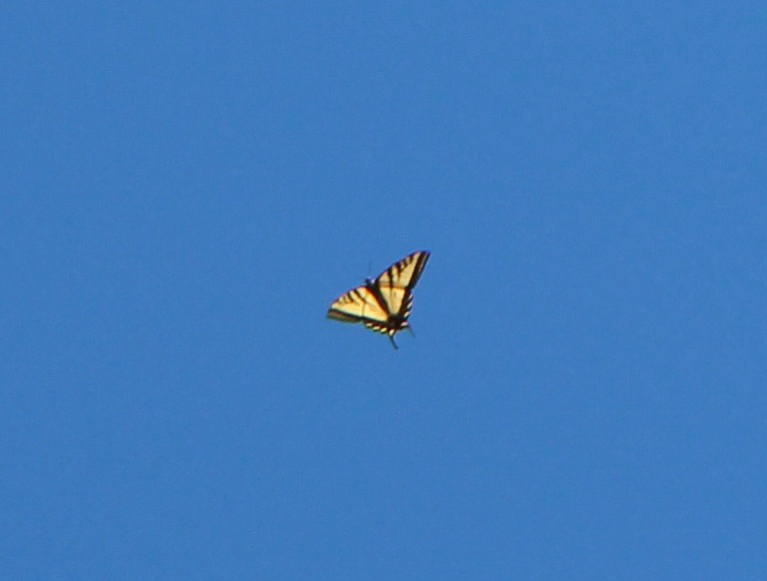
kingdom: Animalia
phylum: Arthropoda
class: Insecta
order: Lepidoptera
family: Papilionidae
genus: Papilio
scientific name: Papilio rutulus
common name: Western tiger swallowtail
